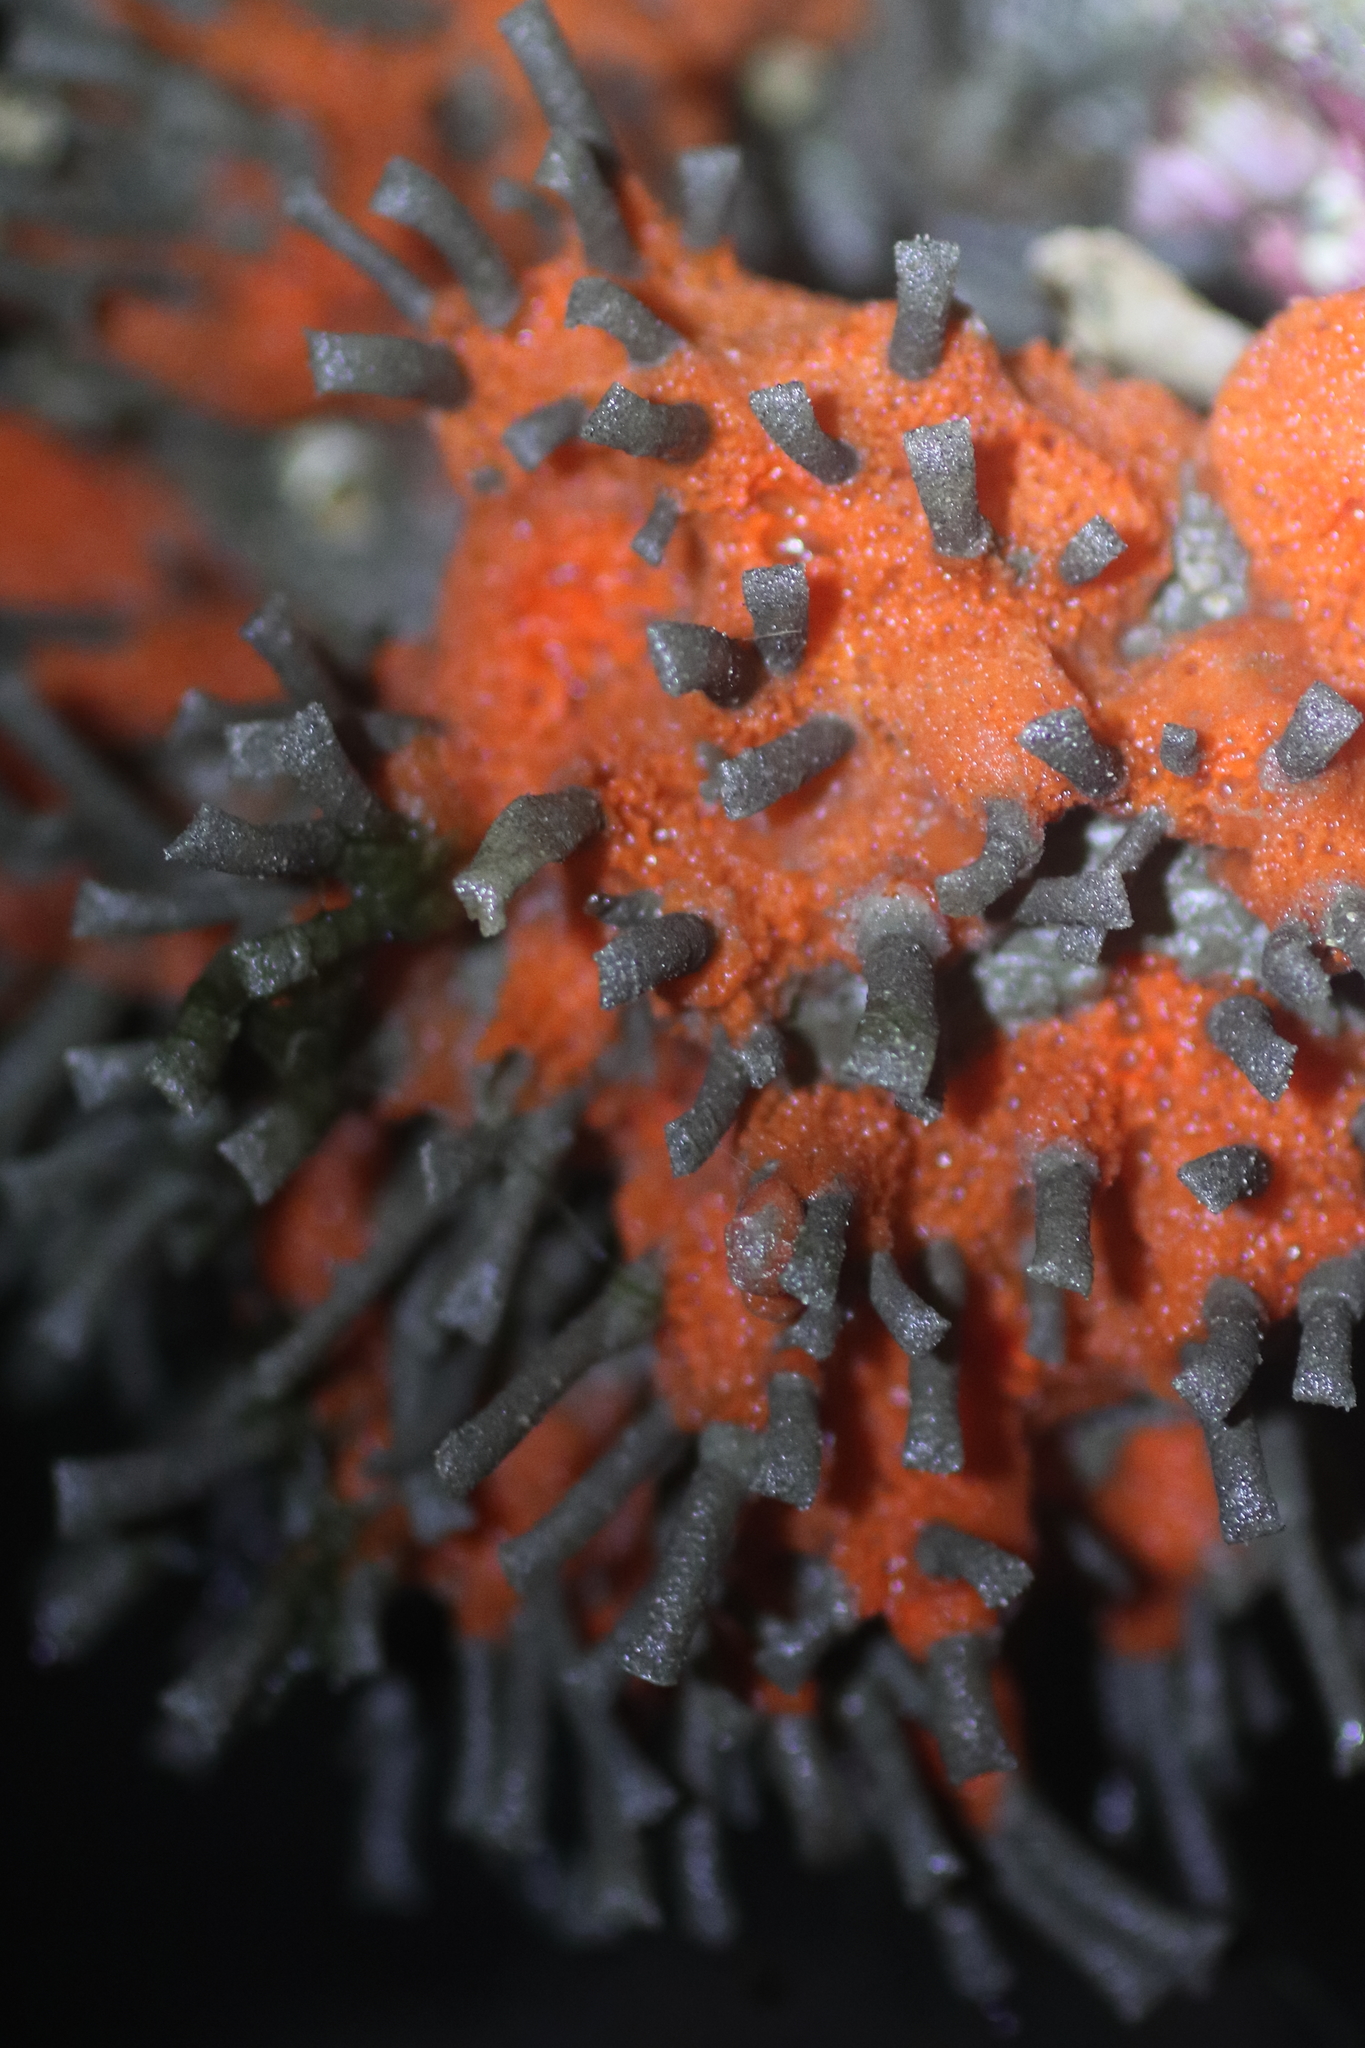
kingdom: Animalia
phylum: Annelida
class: Polychaeta
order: Sabellida
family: Sabellidae
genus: Schizobranchia
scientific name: Schizobranchia insignis
